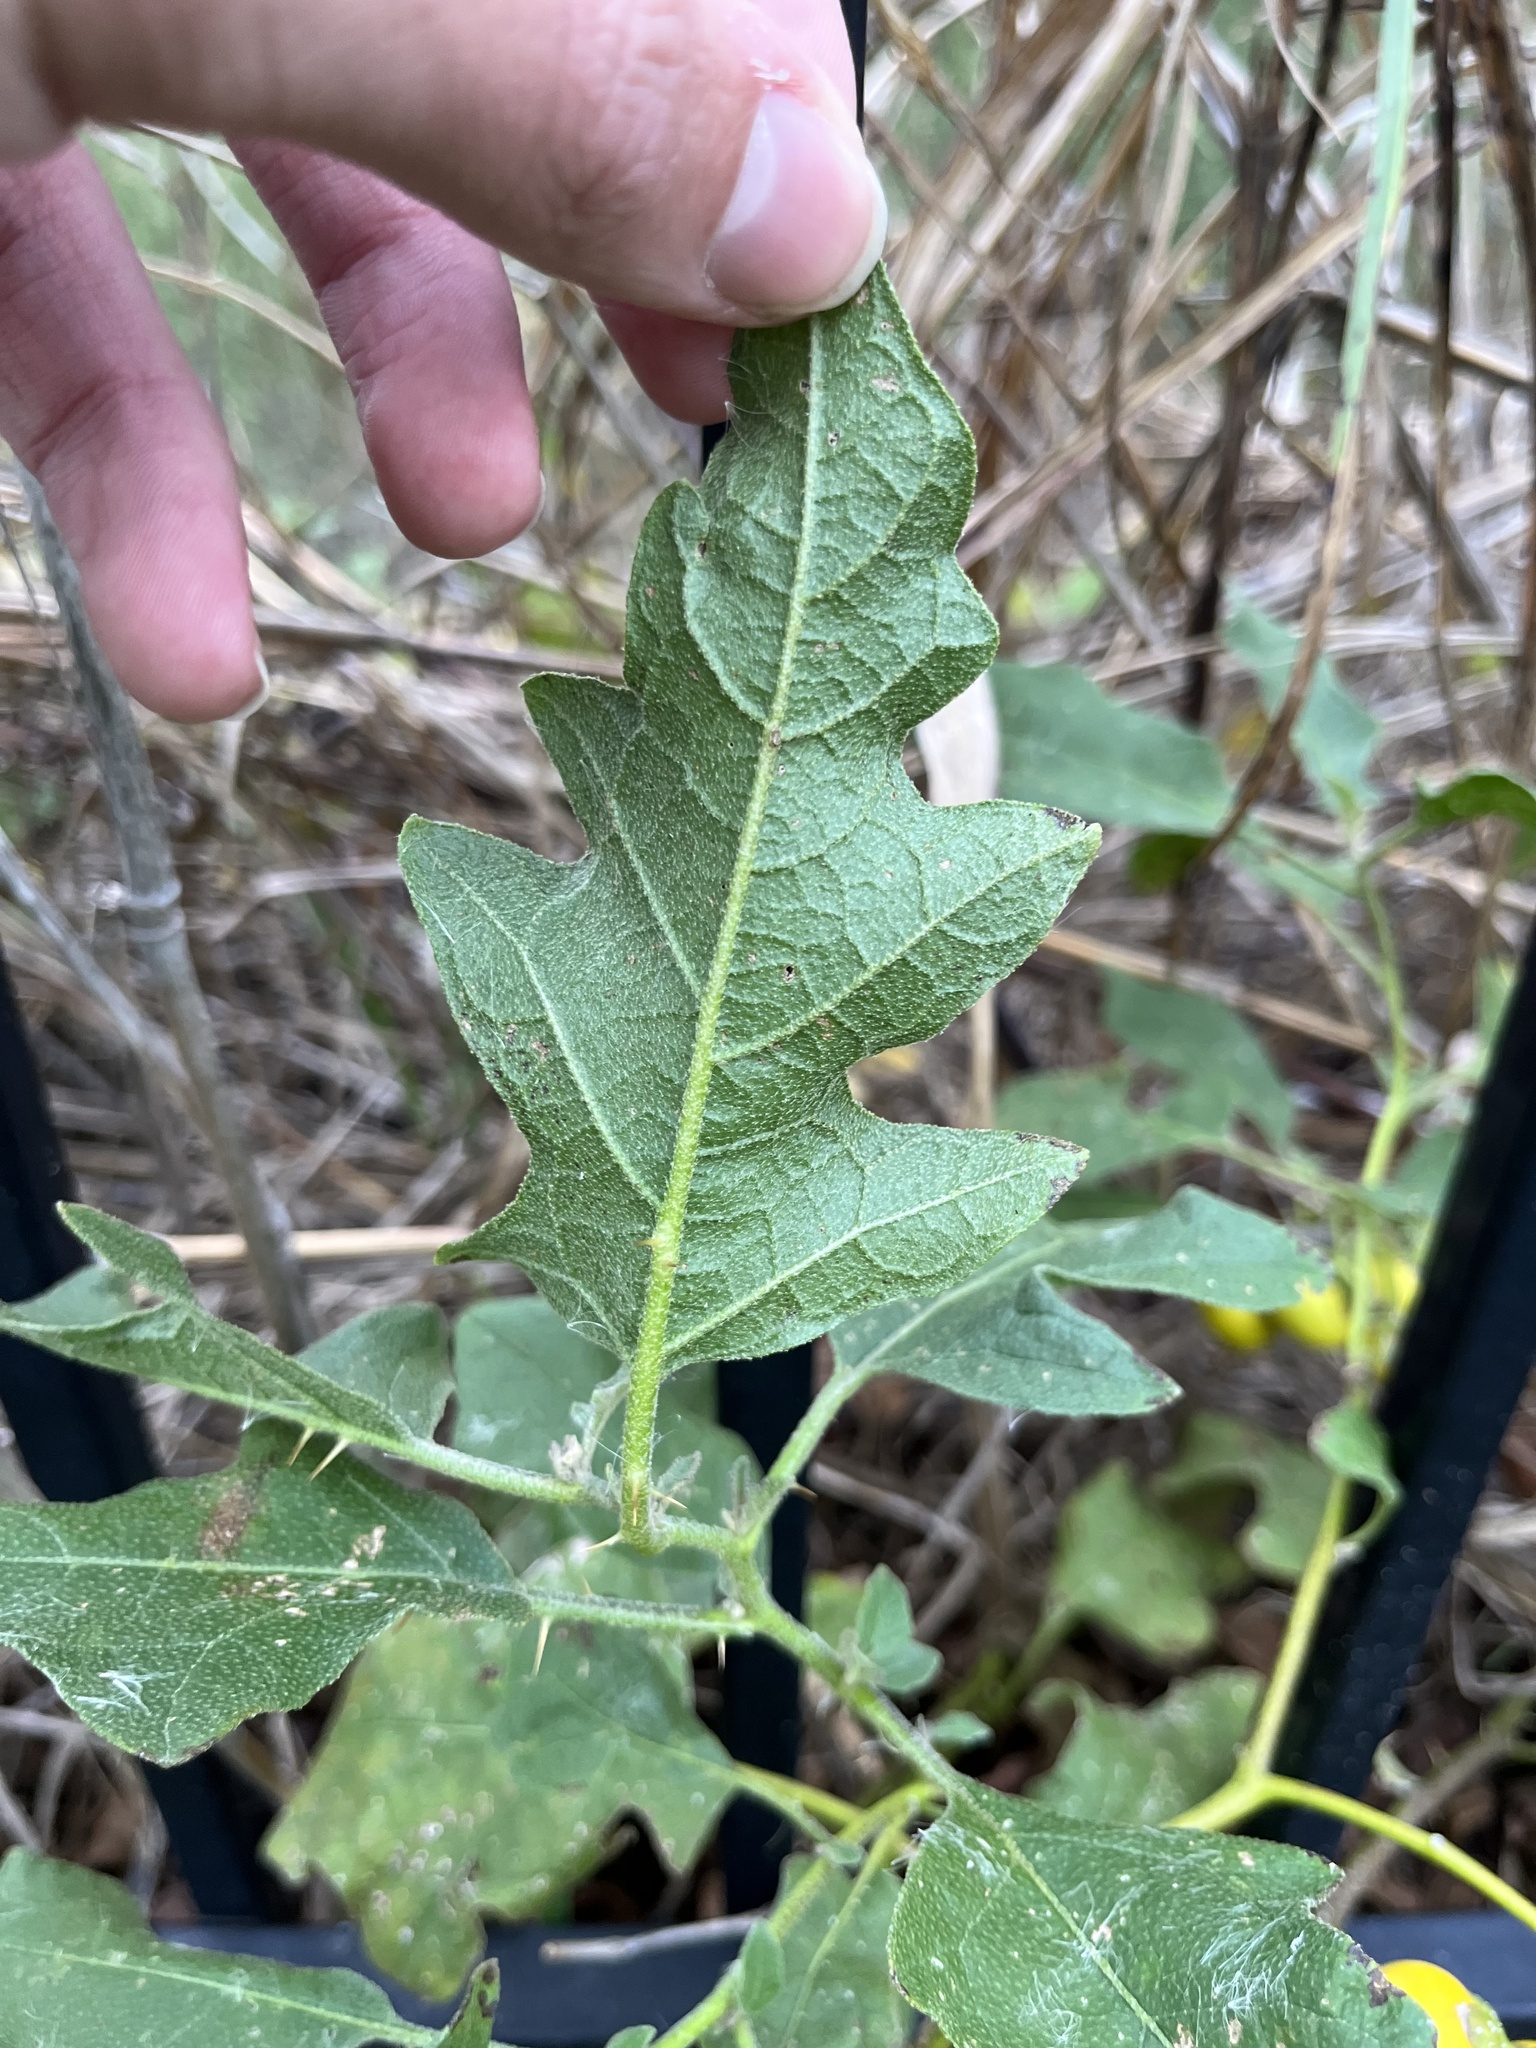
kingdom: Plantae
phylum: Tracheophyta
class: Magnoliopsida
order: Solanales
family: Solanaceae
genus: Solanum
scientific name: Solanum dimidiatum
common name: Carolina horse-nettle
